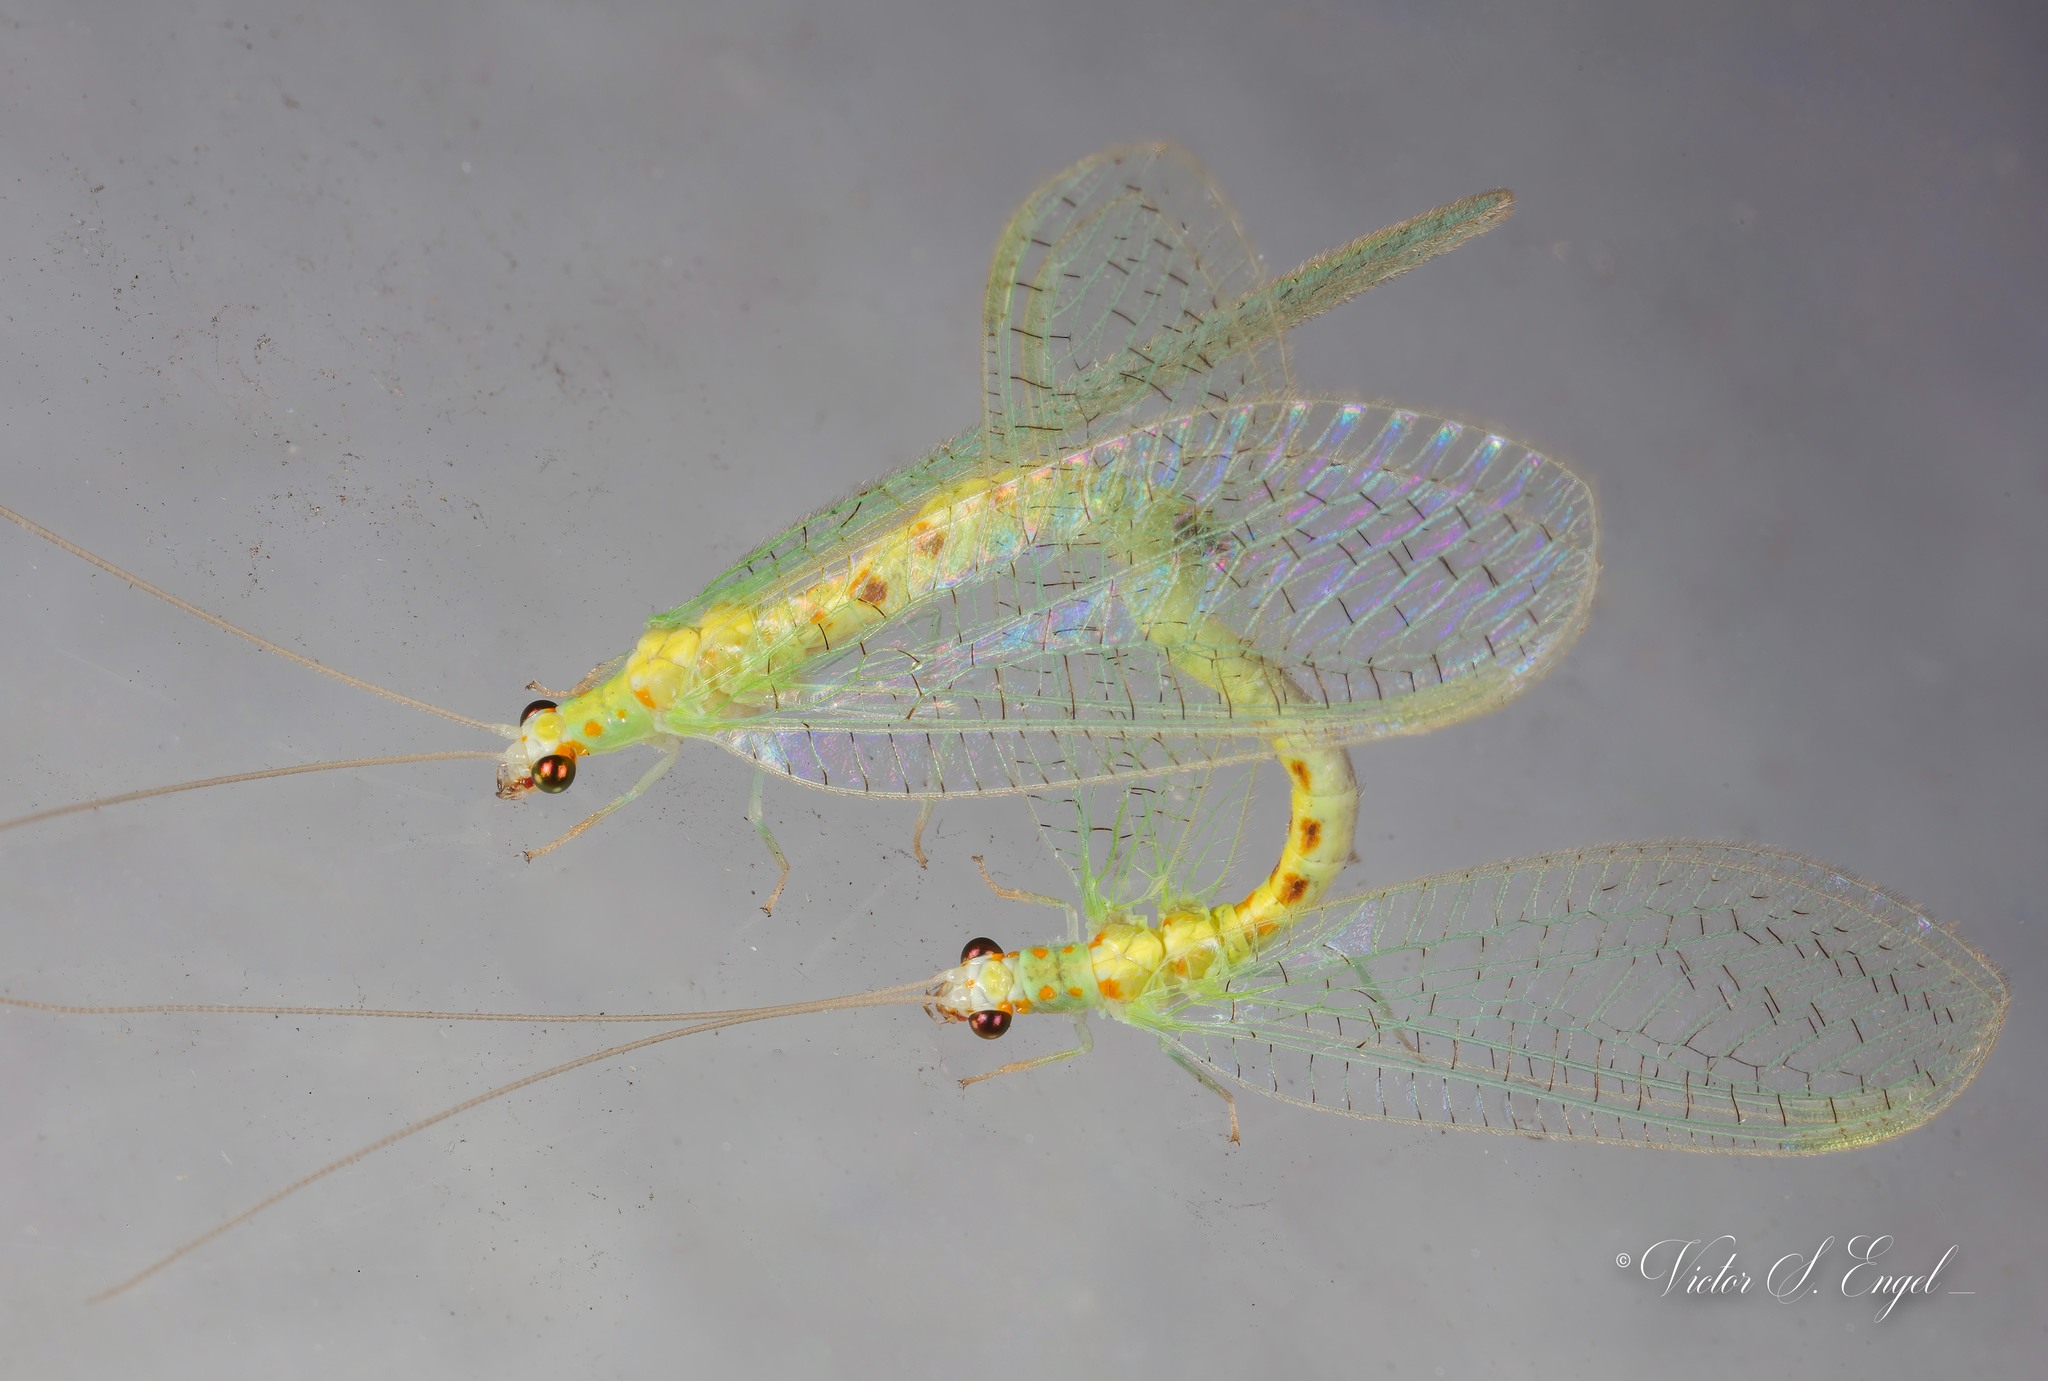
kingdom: Animalia
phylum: Arthropoda
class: Insecta
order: Neuroptera
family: Chrysopidae
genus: Chrysopa
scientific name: Chrysopa quadripunctata
